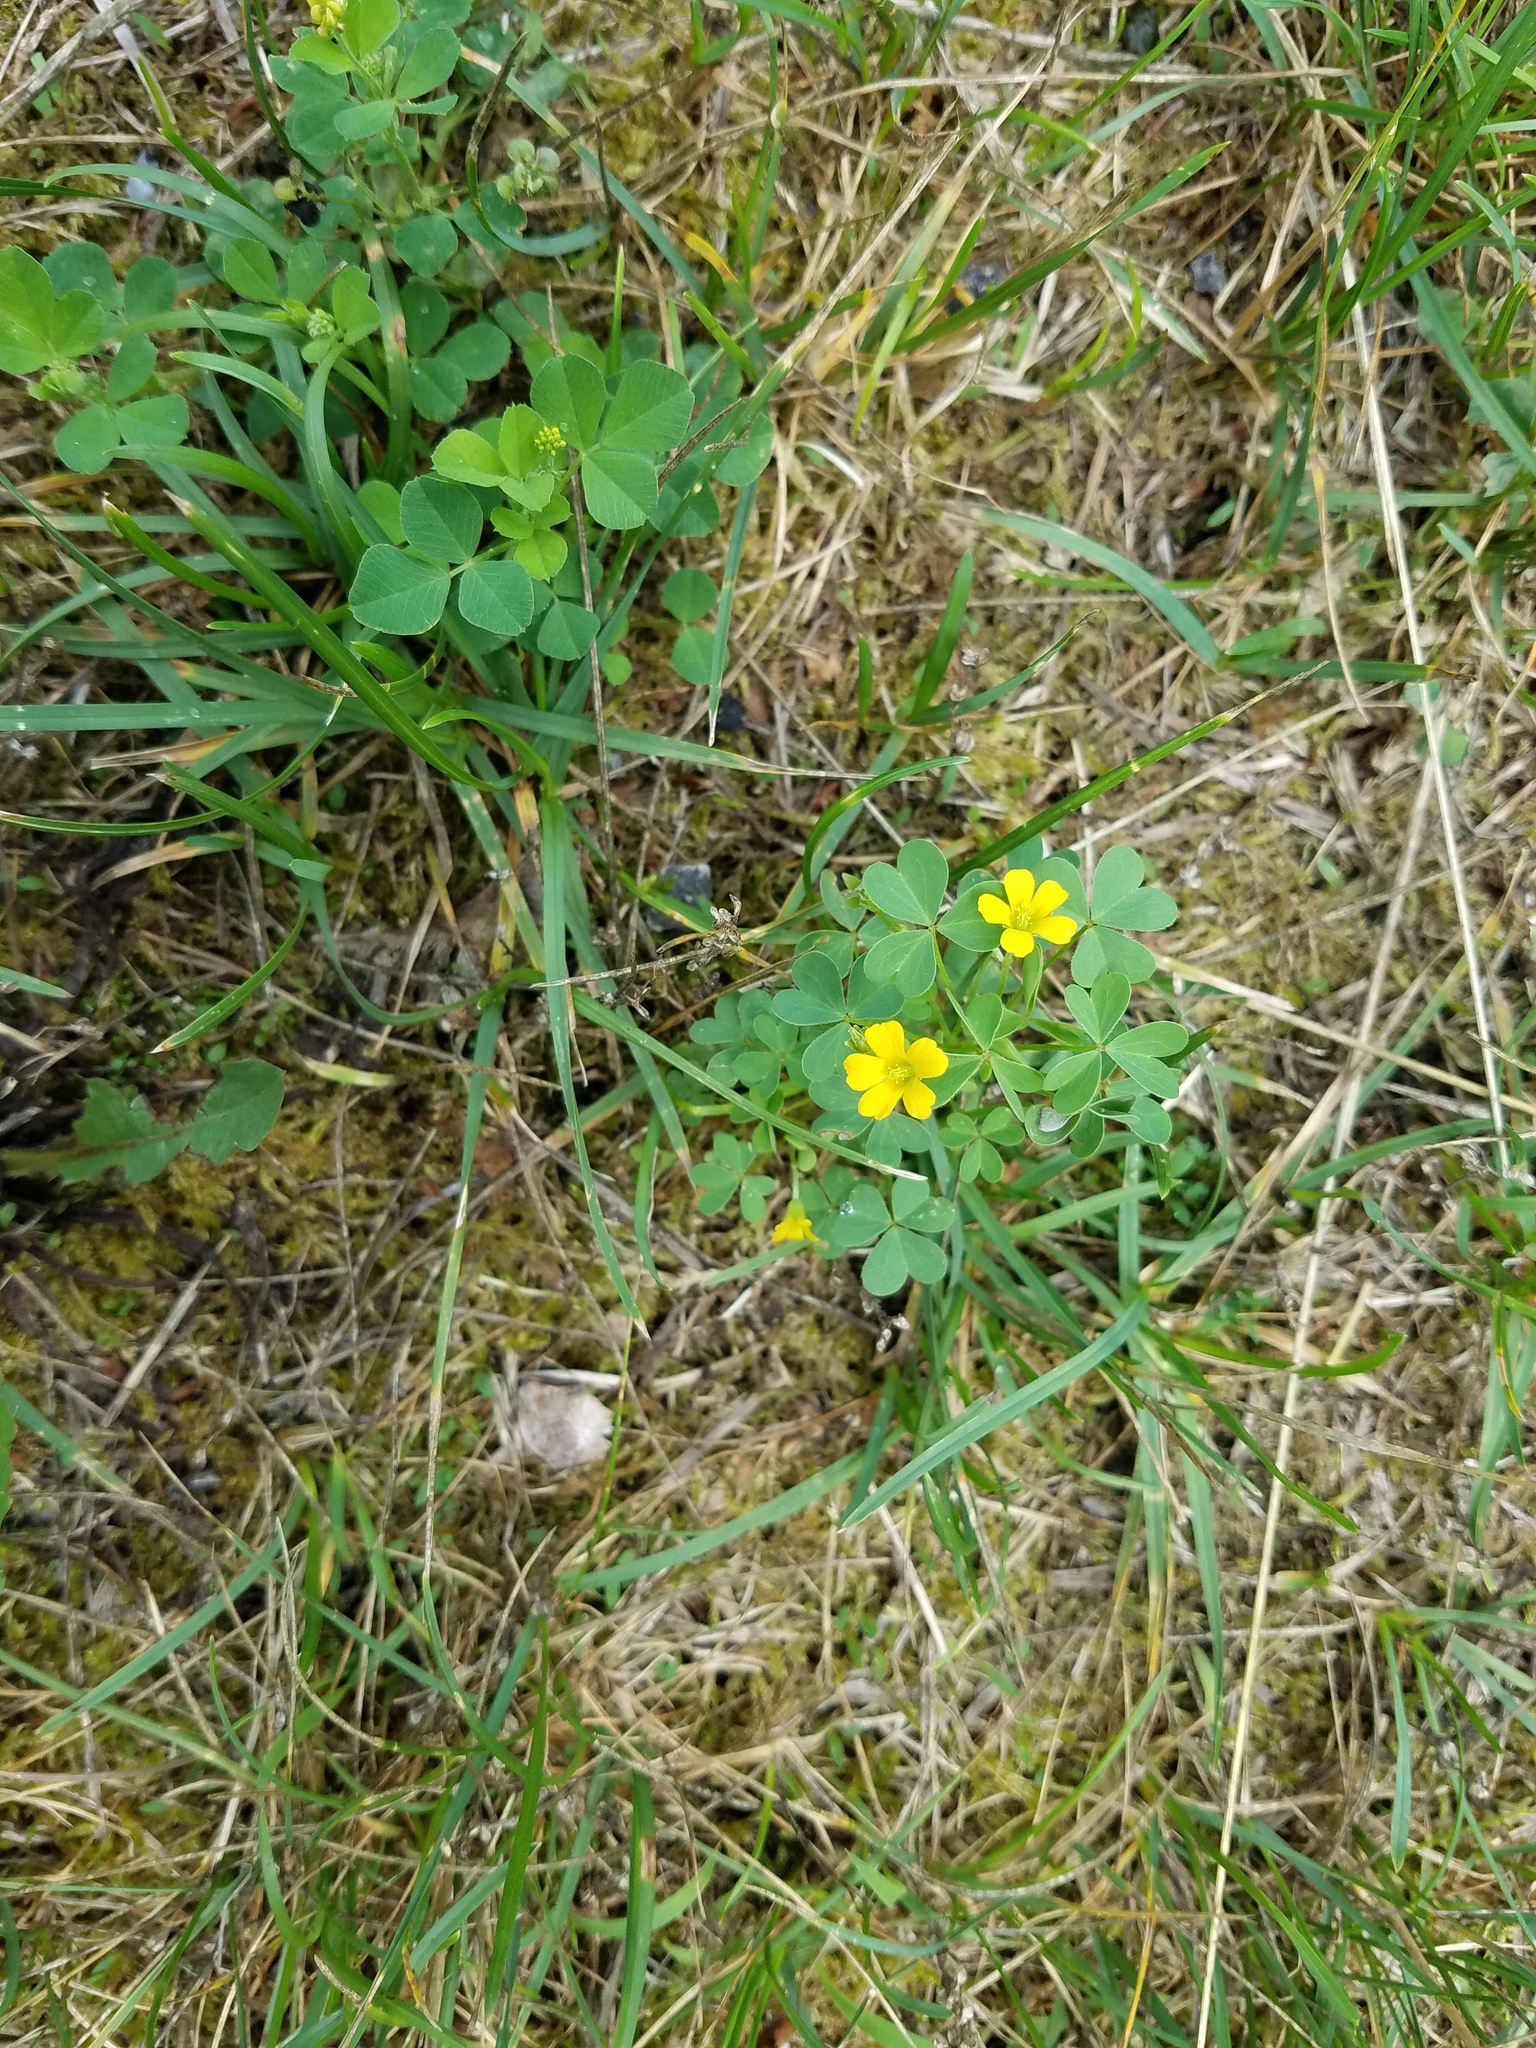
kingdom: Plantae
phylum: Tracheophyta
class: Magnoliopsida
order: Oxalidales
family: Oxalidaceae
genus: Oxalis
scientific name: Oxalis stricta
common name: Upright yellow-sorrel
